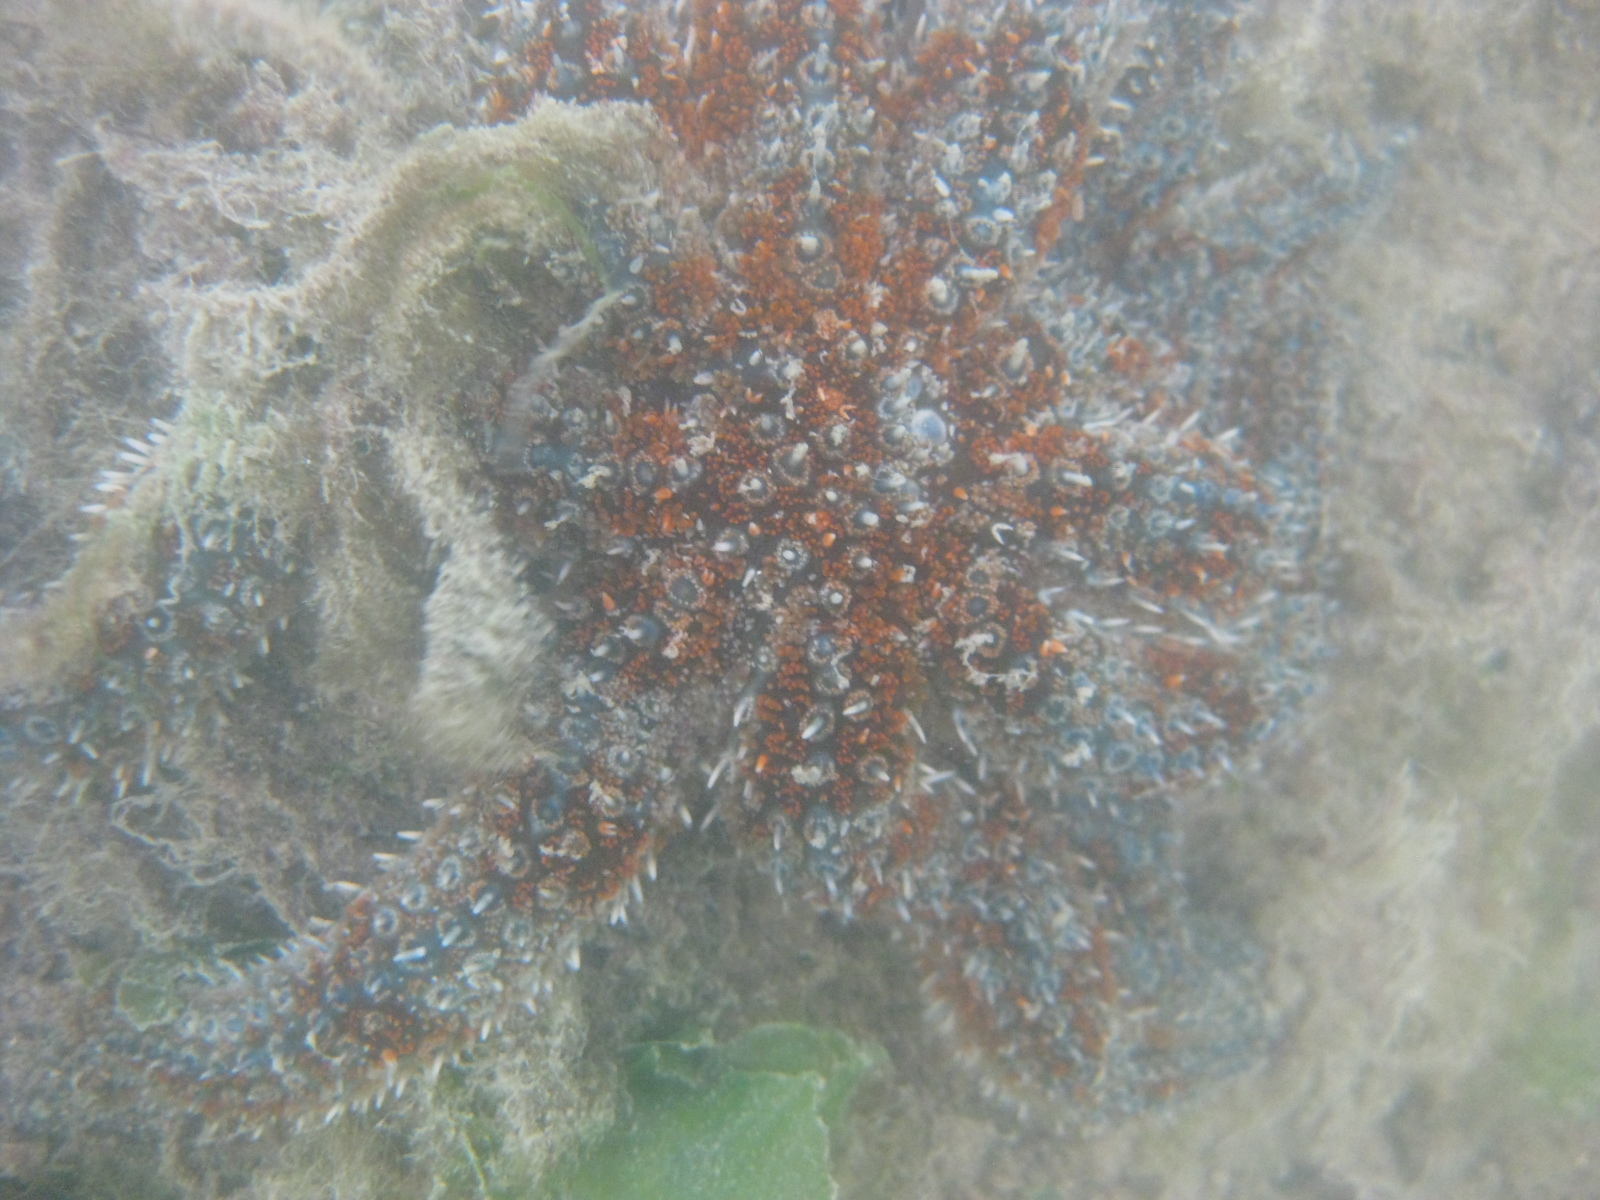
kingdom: Animalia
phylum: Echinodermata
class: Asteroidea
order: Forcipulatida
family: Asteriidae
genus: Coscinasterias
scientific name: Coscinasterias muricata
